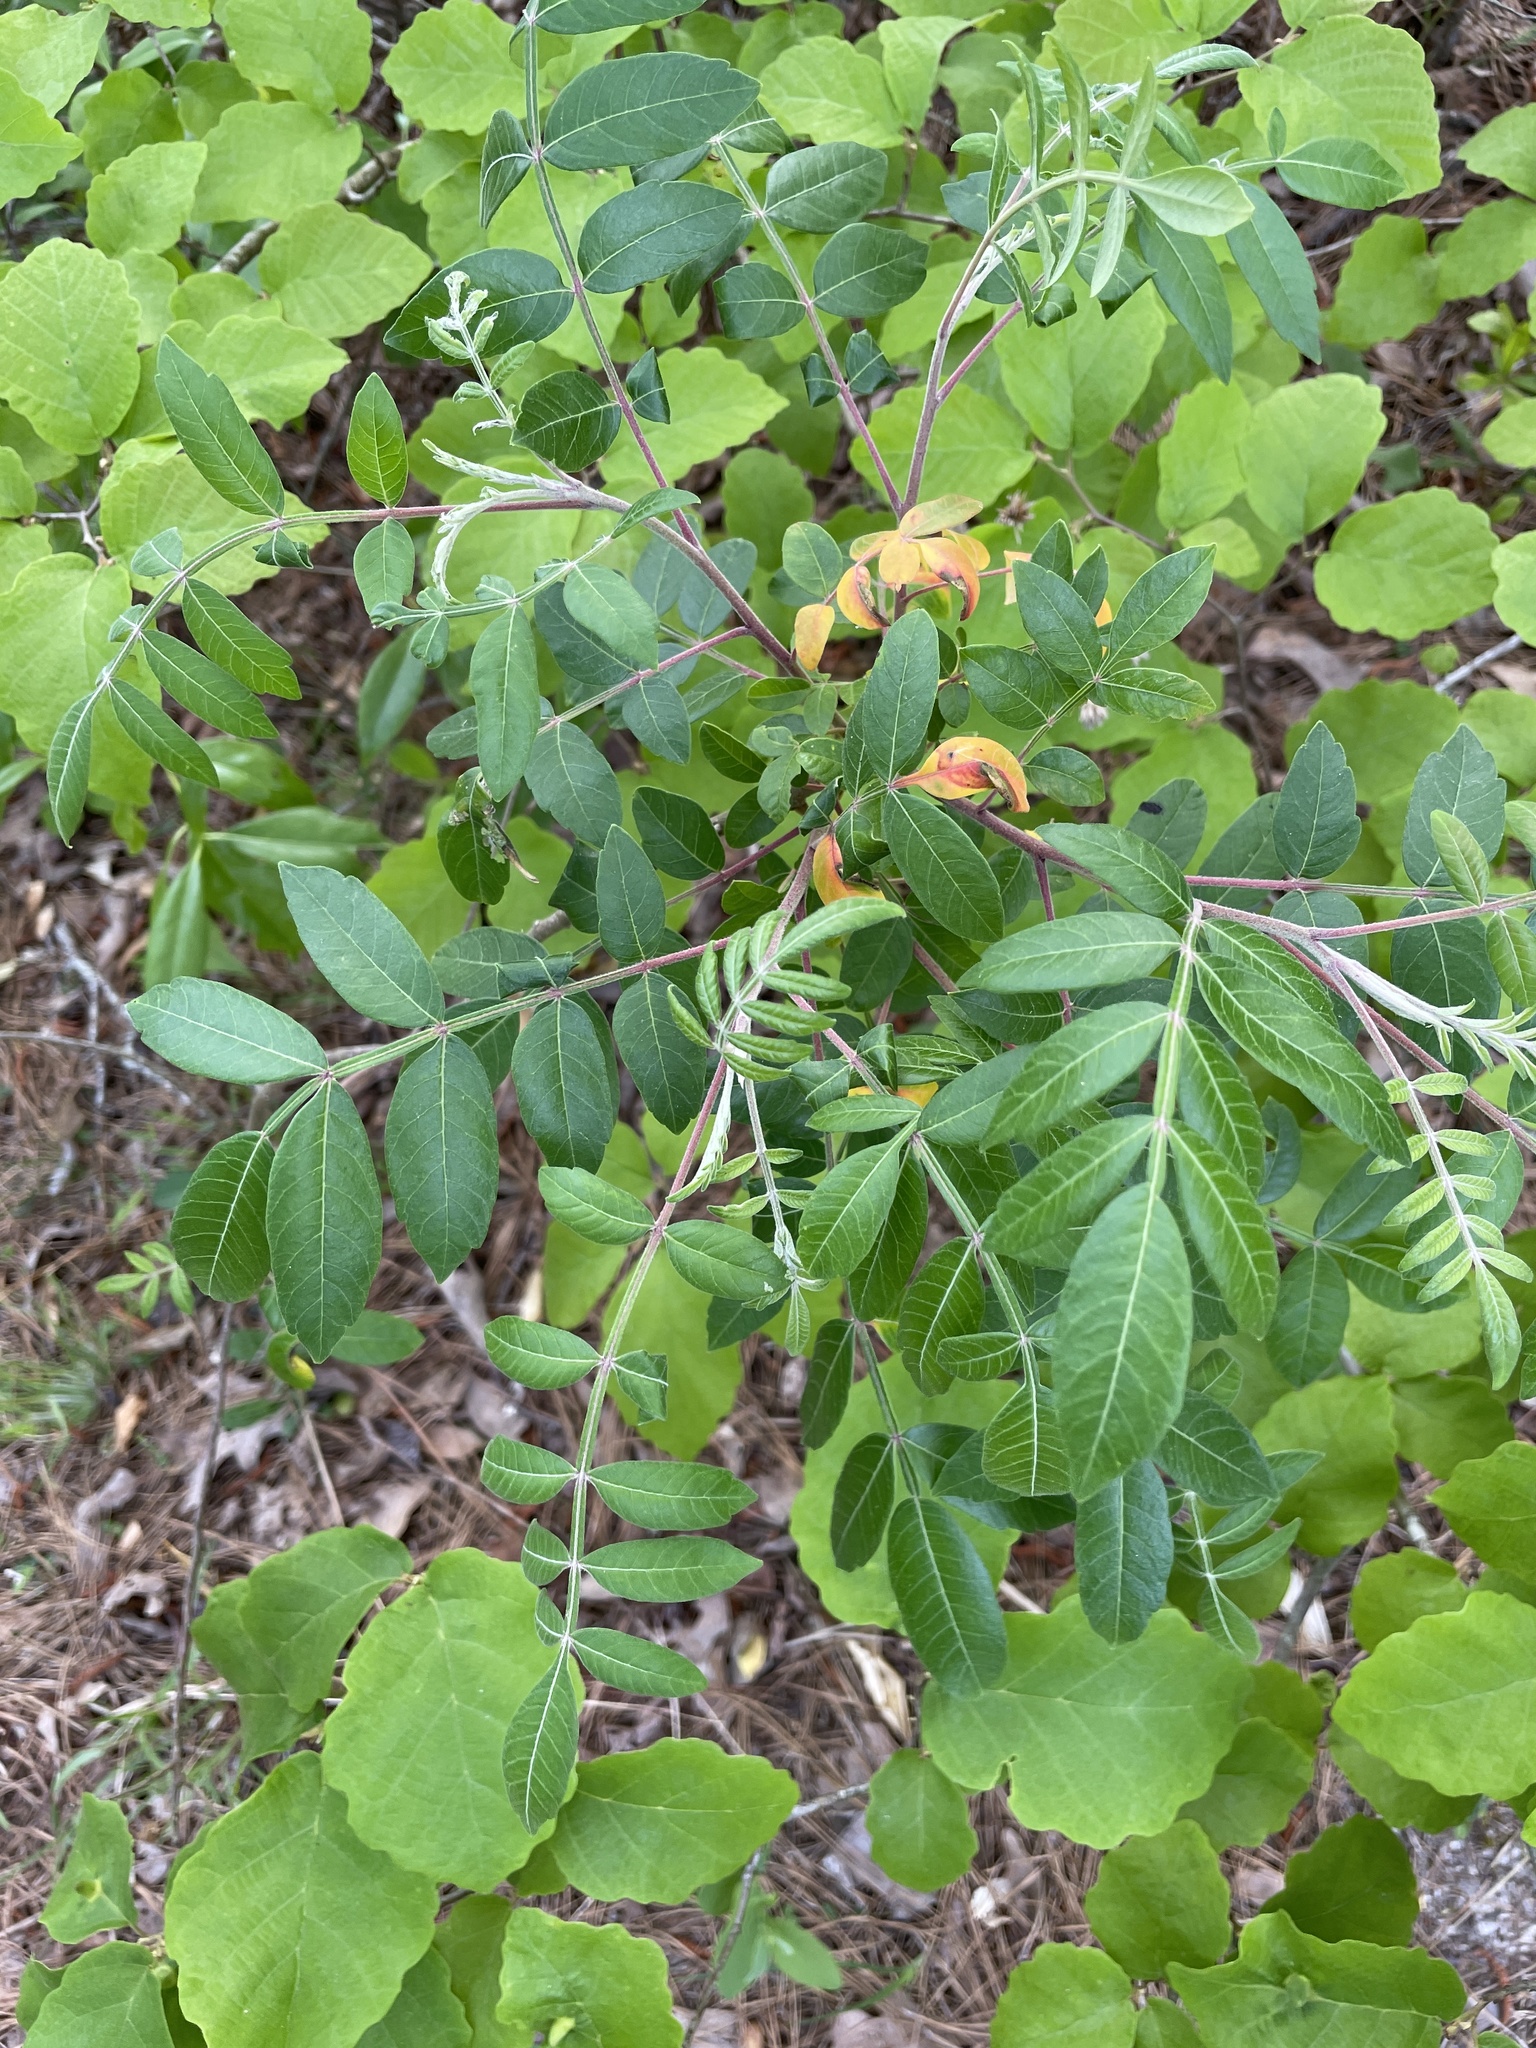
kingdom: Plantae
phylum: Tracheophyta
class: Magnoliopsida
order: Sapindales
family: Anacardiaceae
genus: Rhus
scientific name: Rhus copallina
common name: Shining sumac
